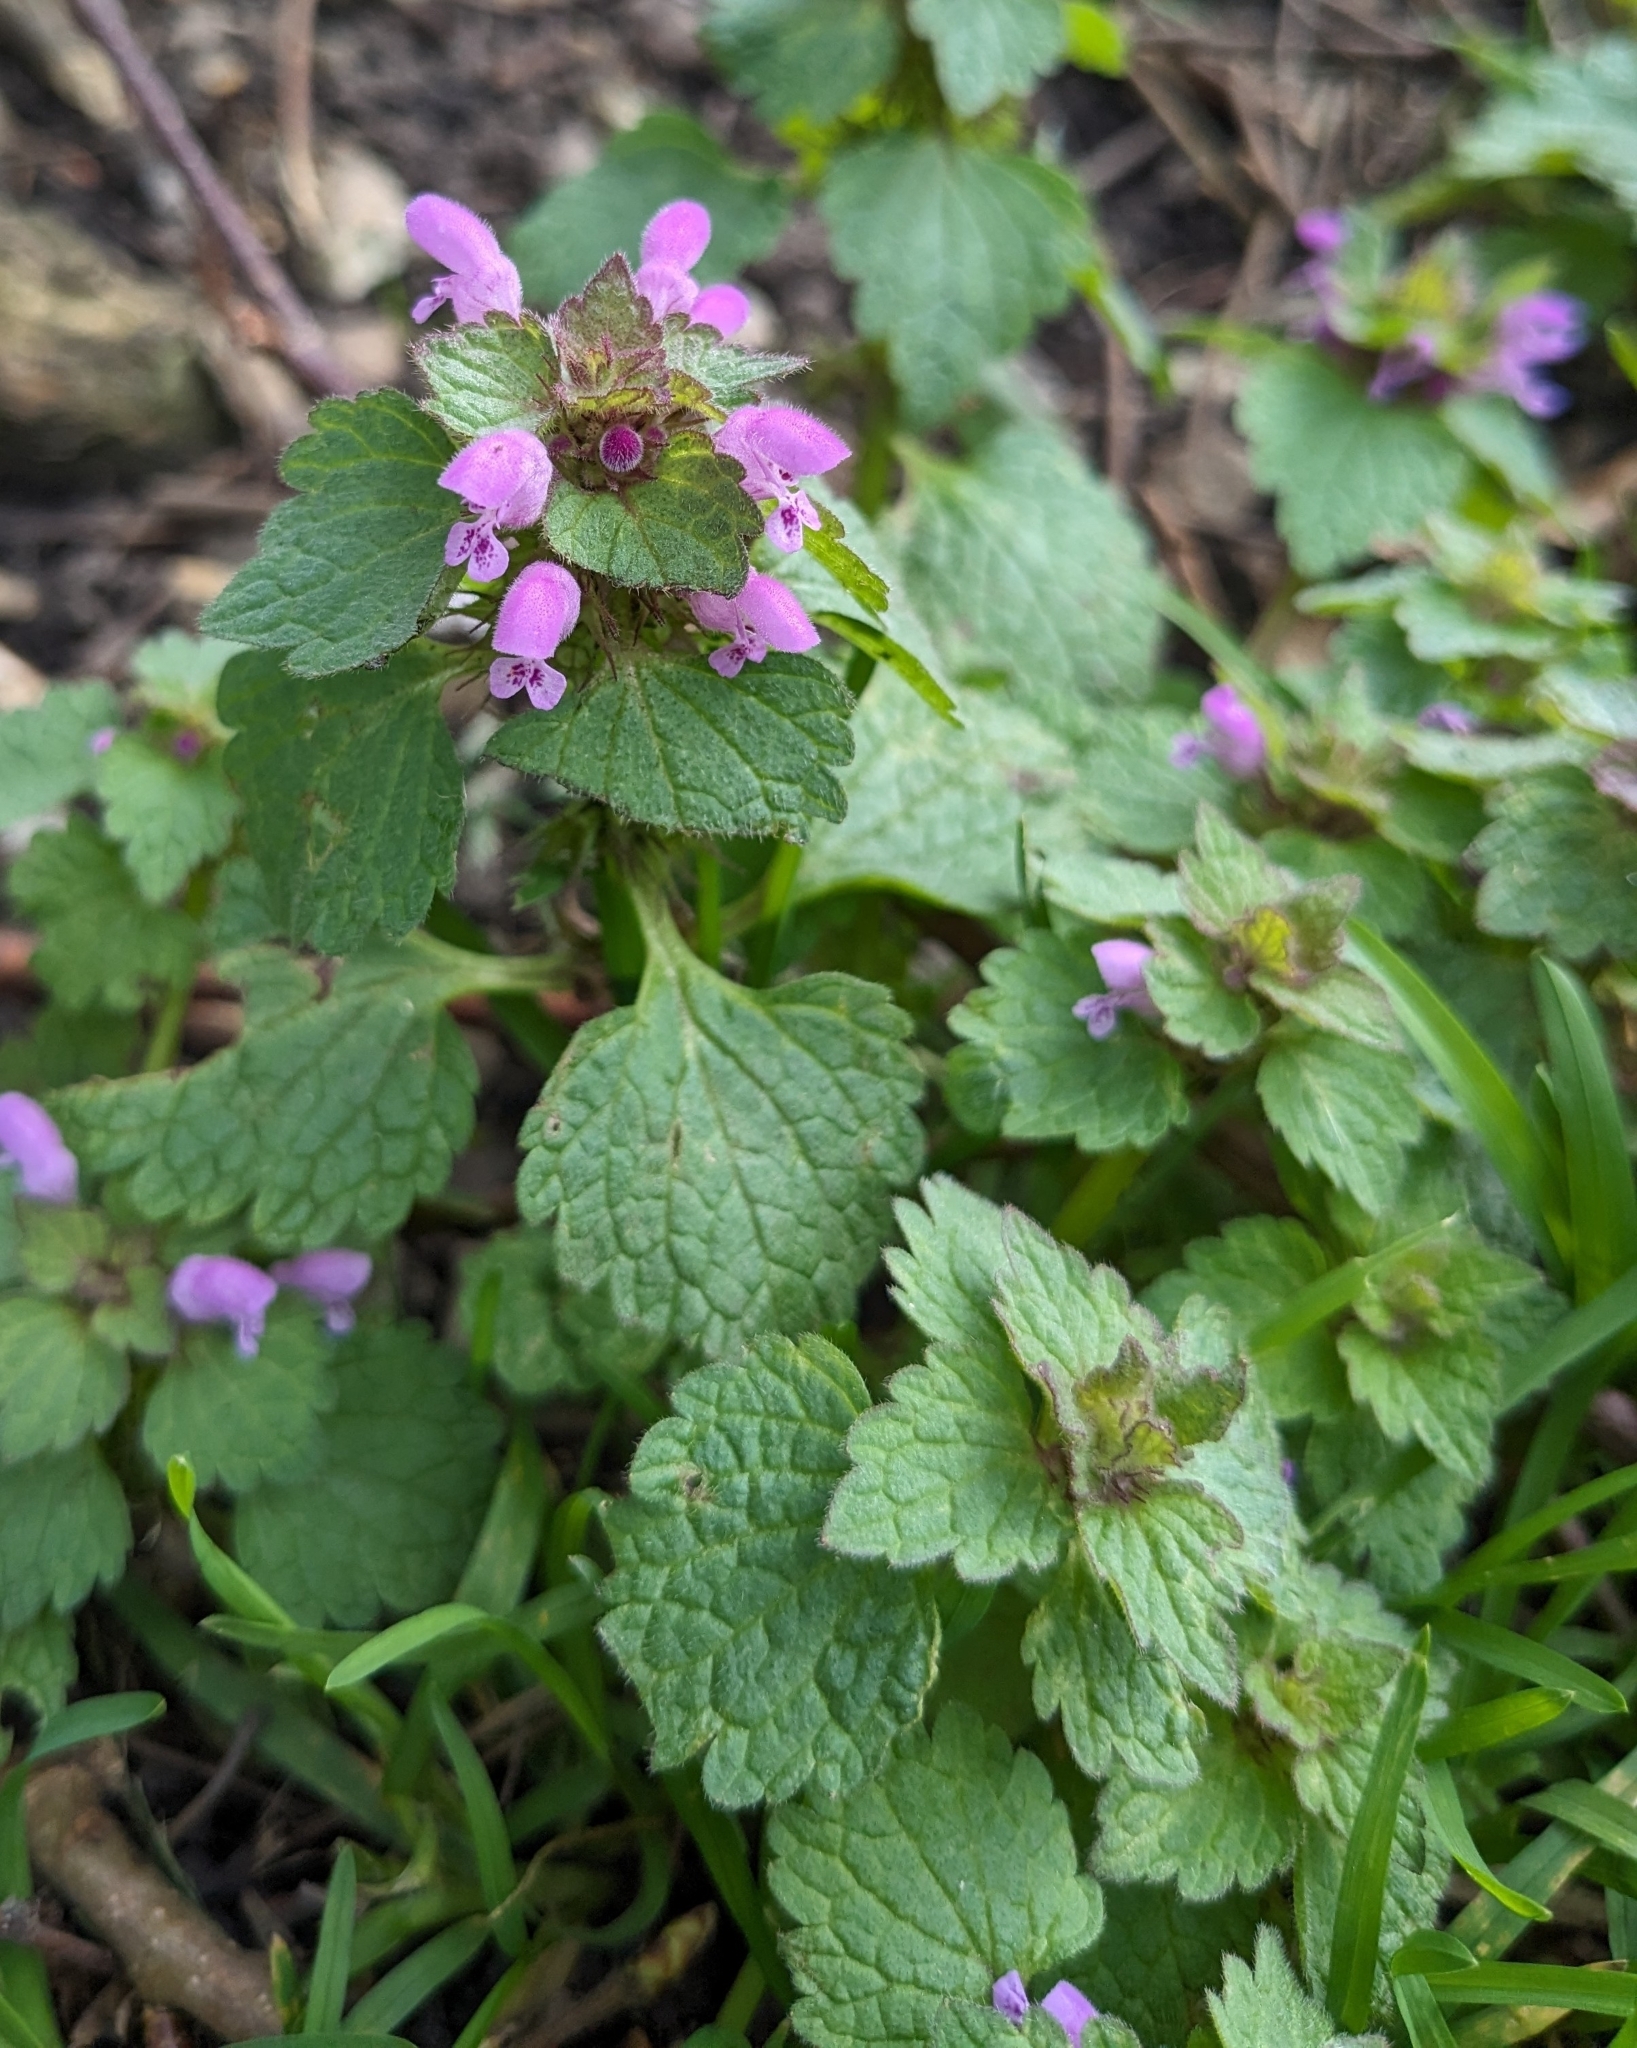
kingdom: Plantae
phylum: Tracheophyta
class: Magnoliopsida
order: Lamiales
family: Lamiaceae
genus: Lamium
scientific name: Lamium purpureum
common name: Red dead-nettle
